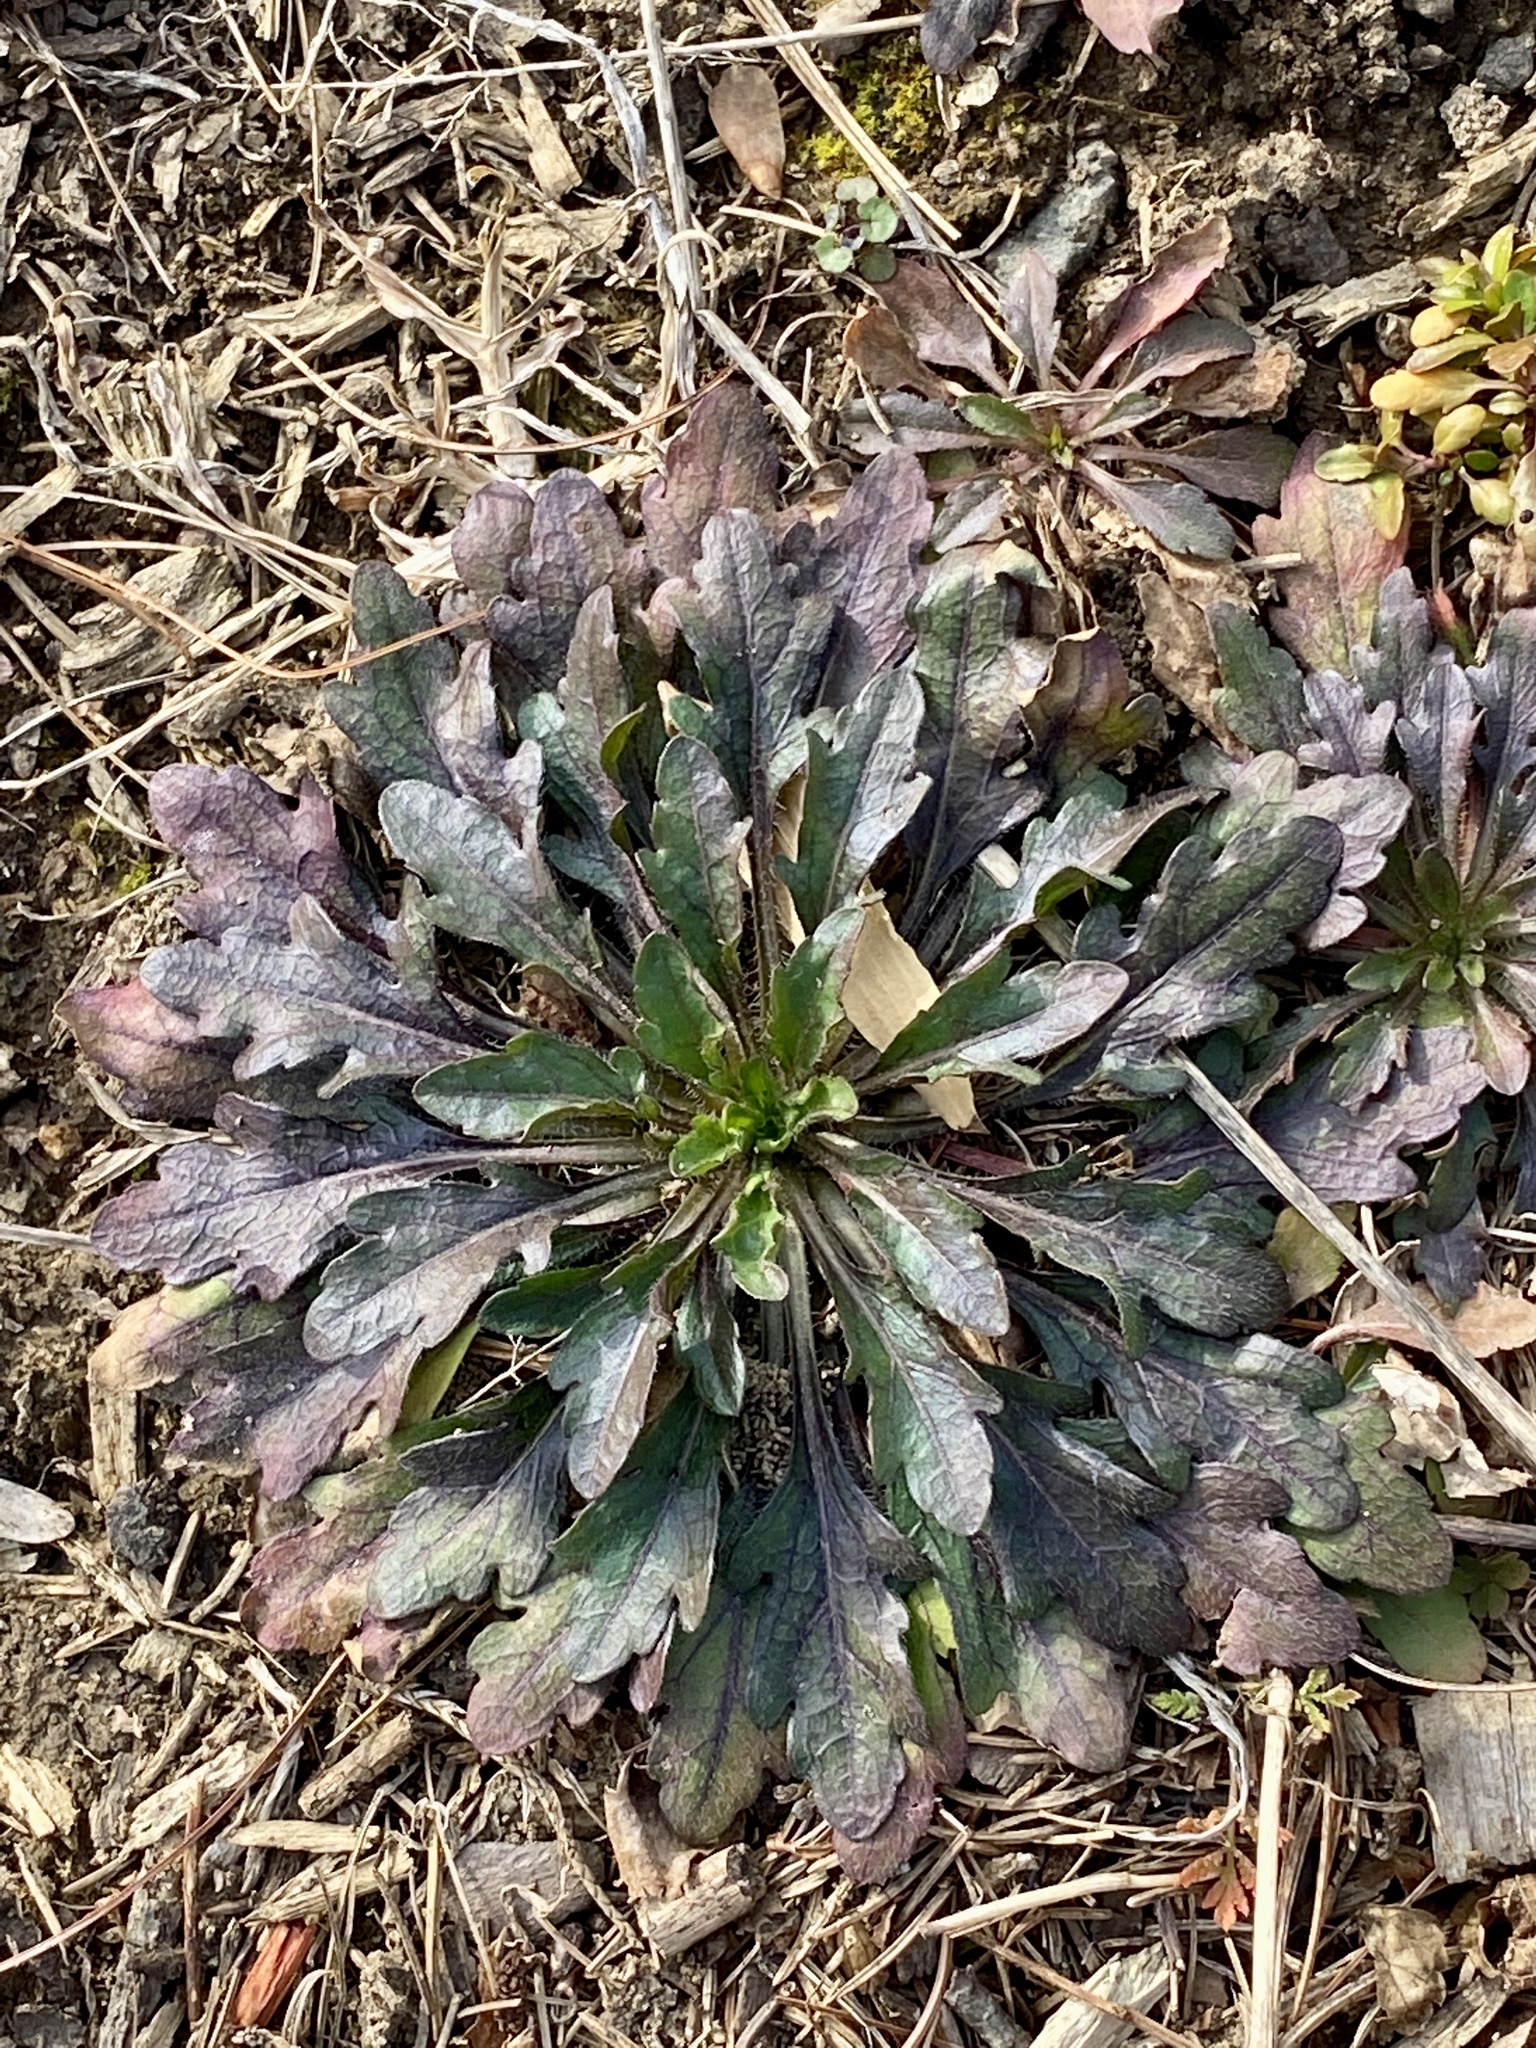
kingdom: Plantae
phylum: Tracheophyta
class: Magnoliopsida
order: Asterales
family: Asteraceae
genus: Erigeron
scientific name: Erigeron canadensis
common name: Canadian fleabane
